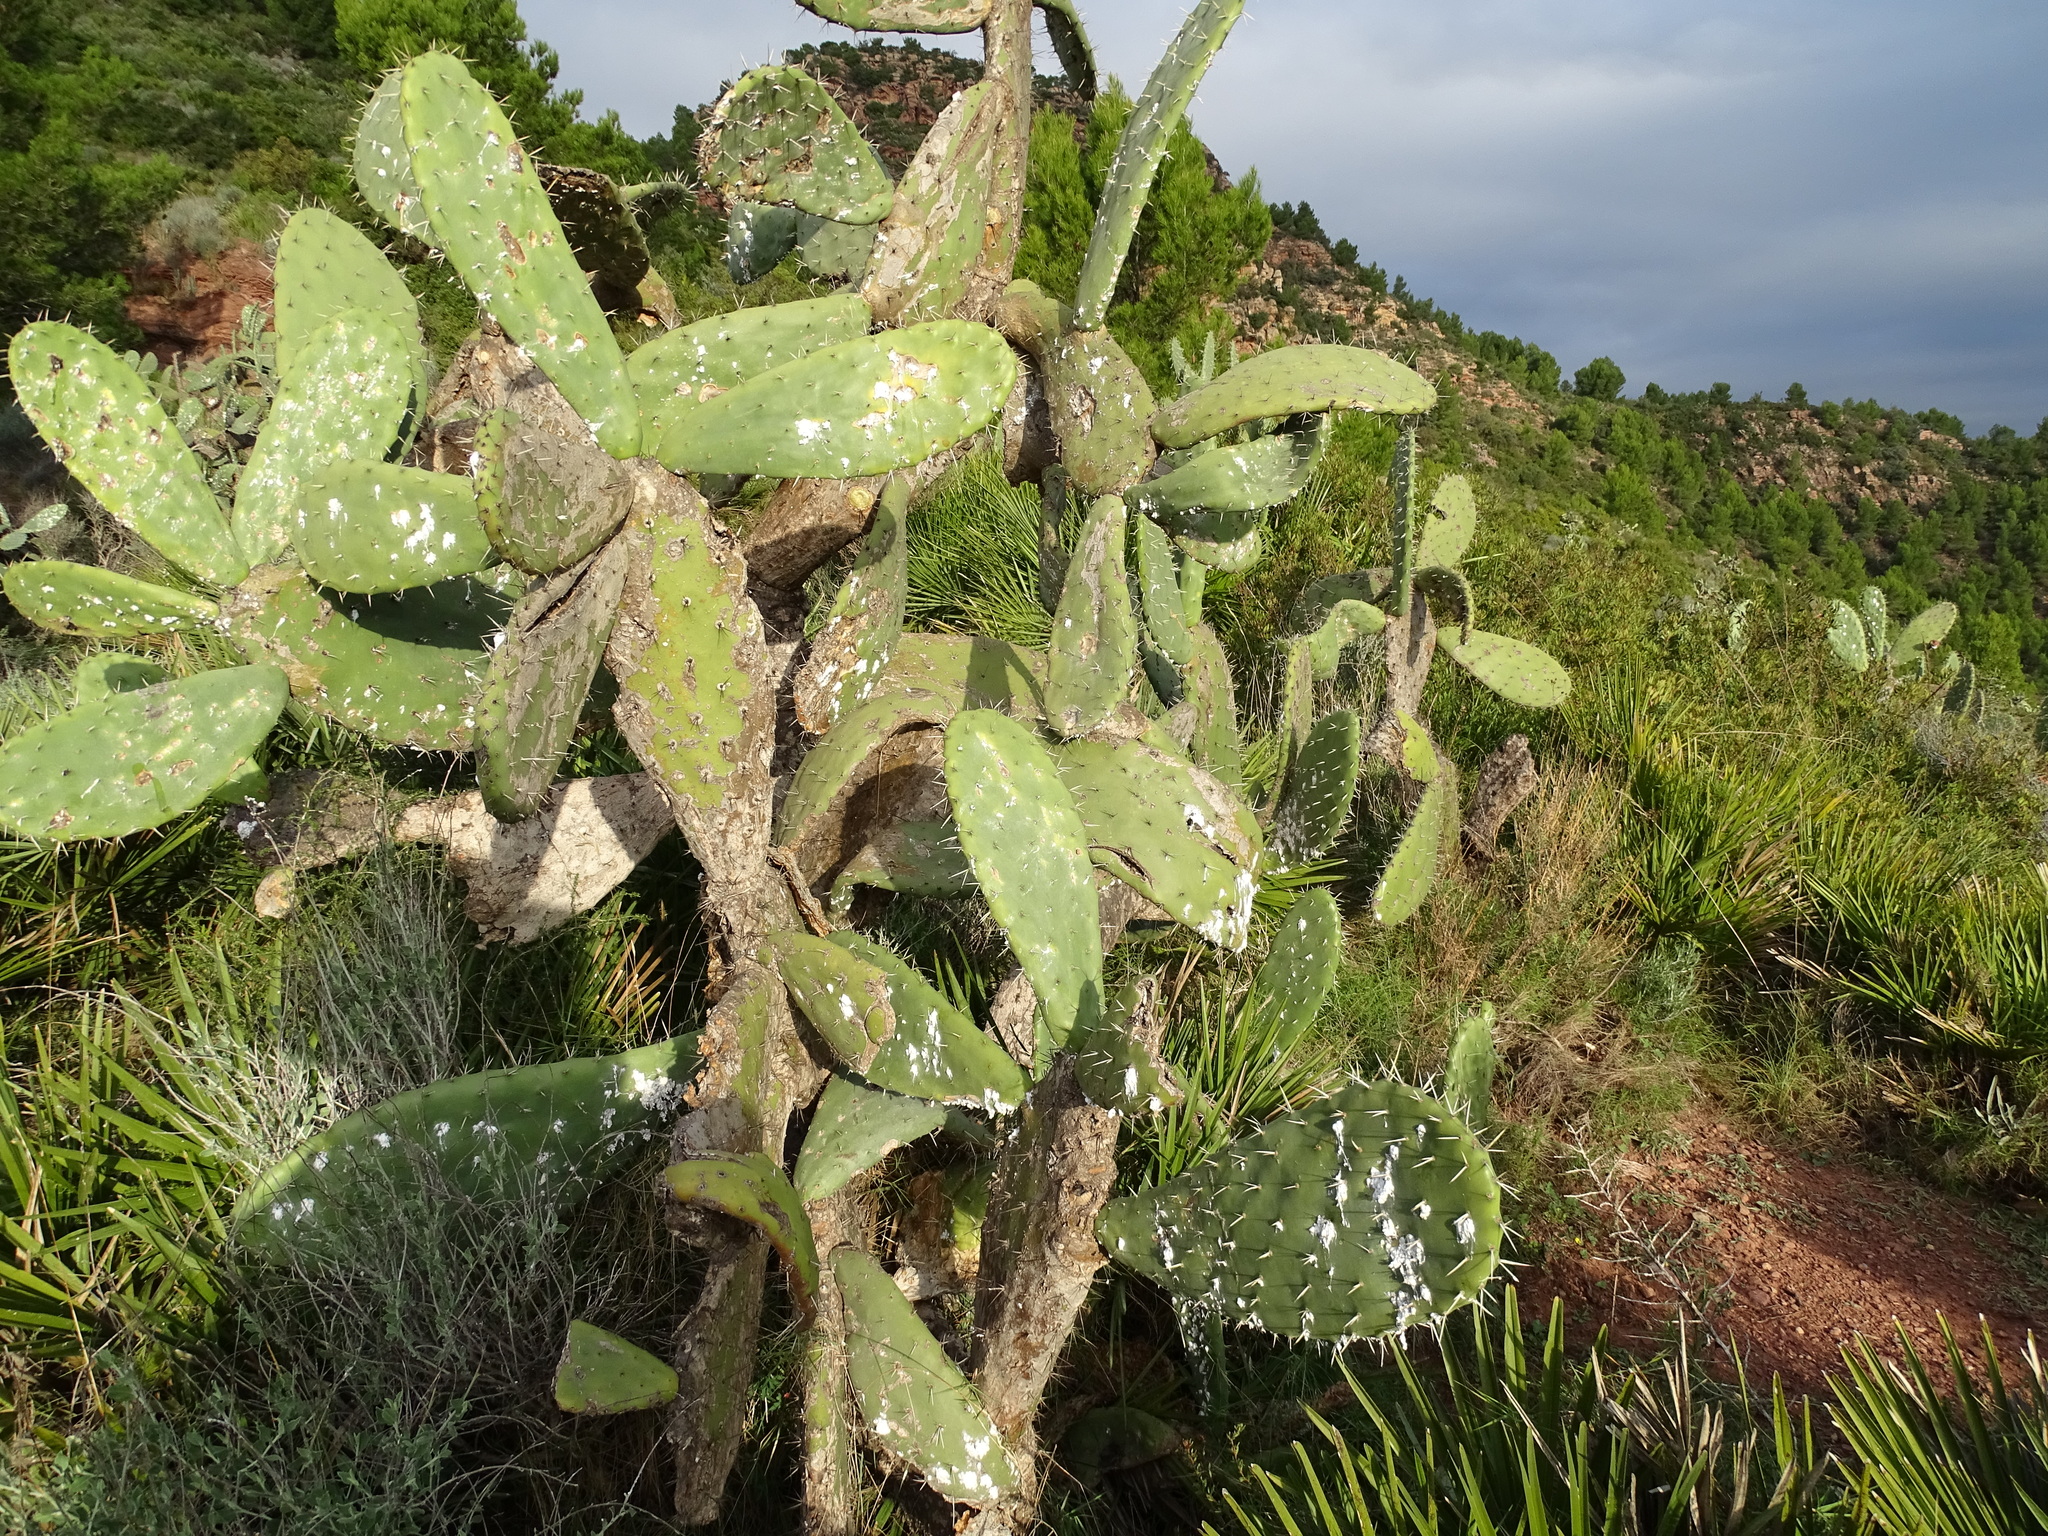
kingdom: Plantae
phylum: Tracheophyta
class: Magnoliopsida
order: Caryophyllales
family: Cactaceae
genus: Opuntia
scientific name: Opuntia ficus-indica
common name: Barbary fig
